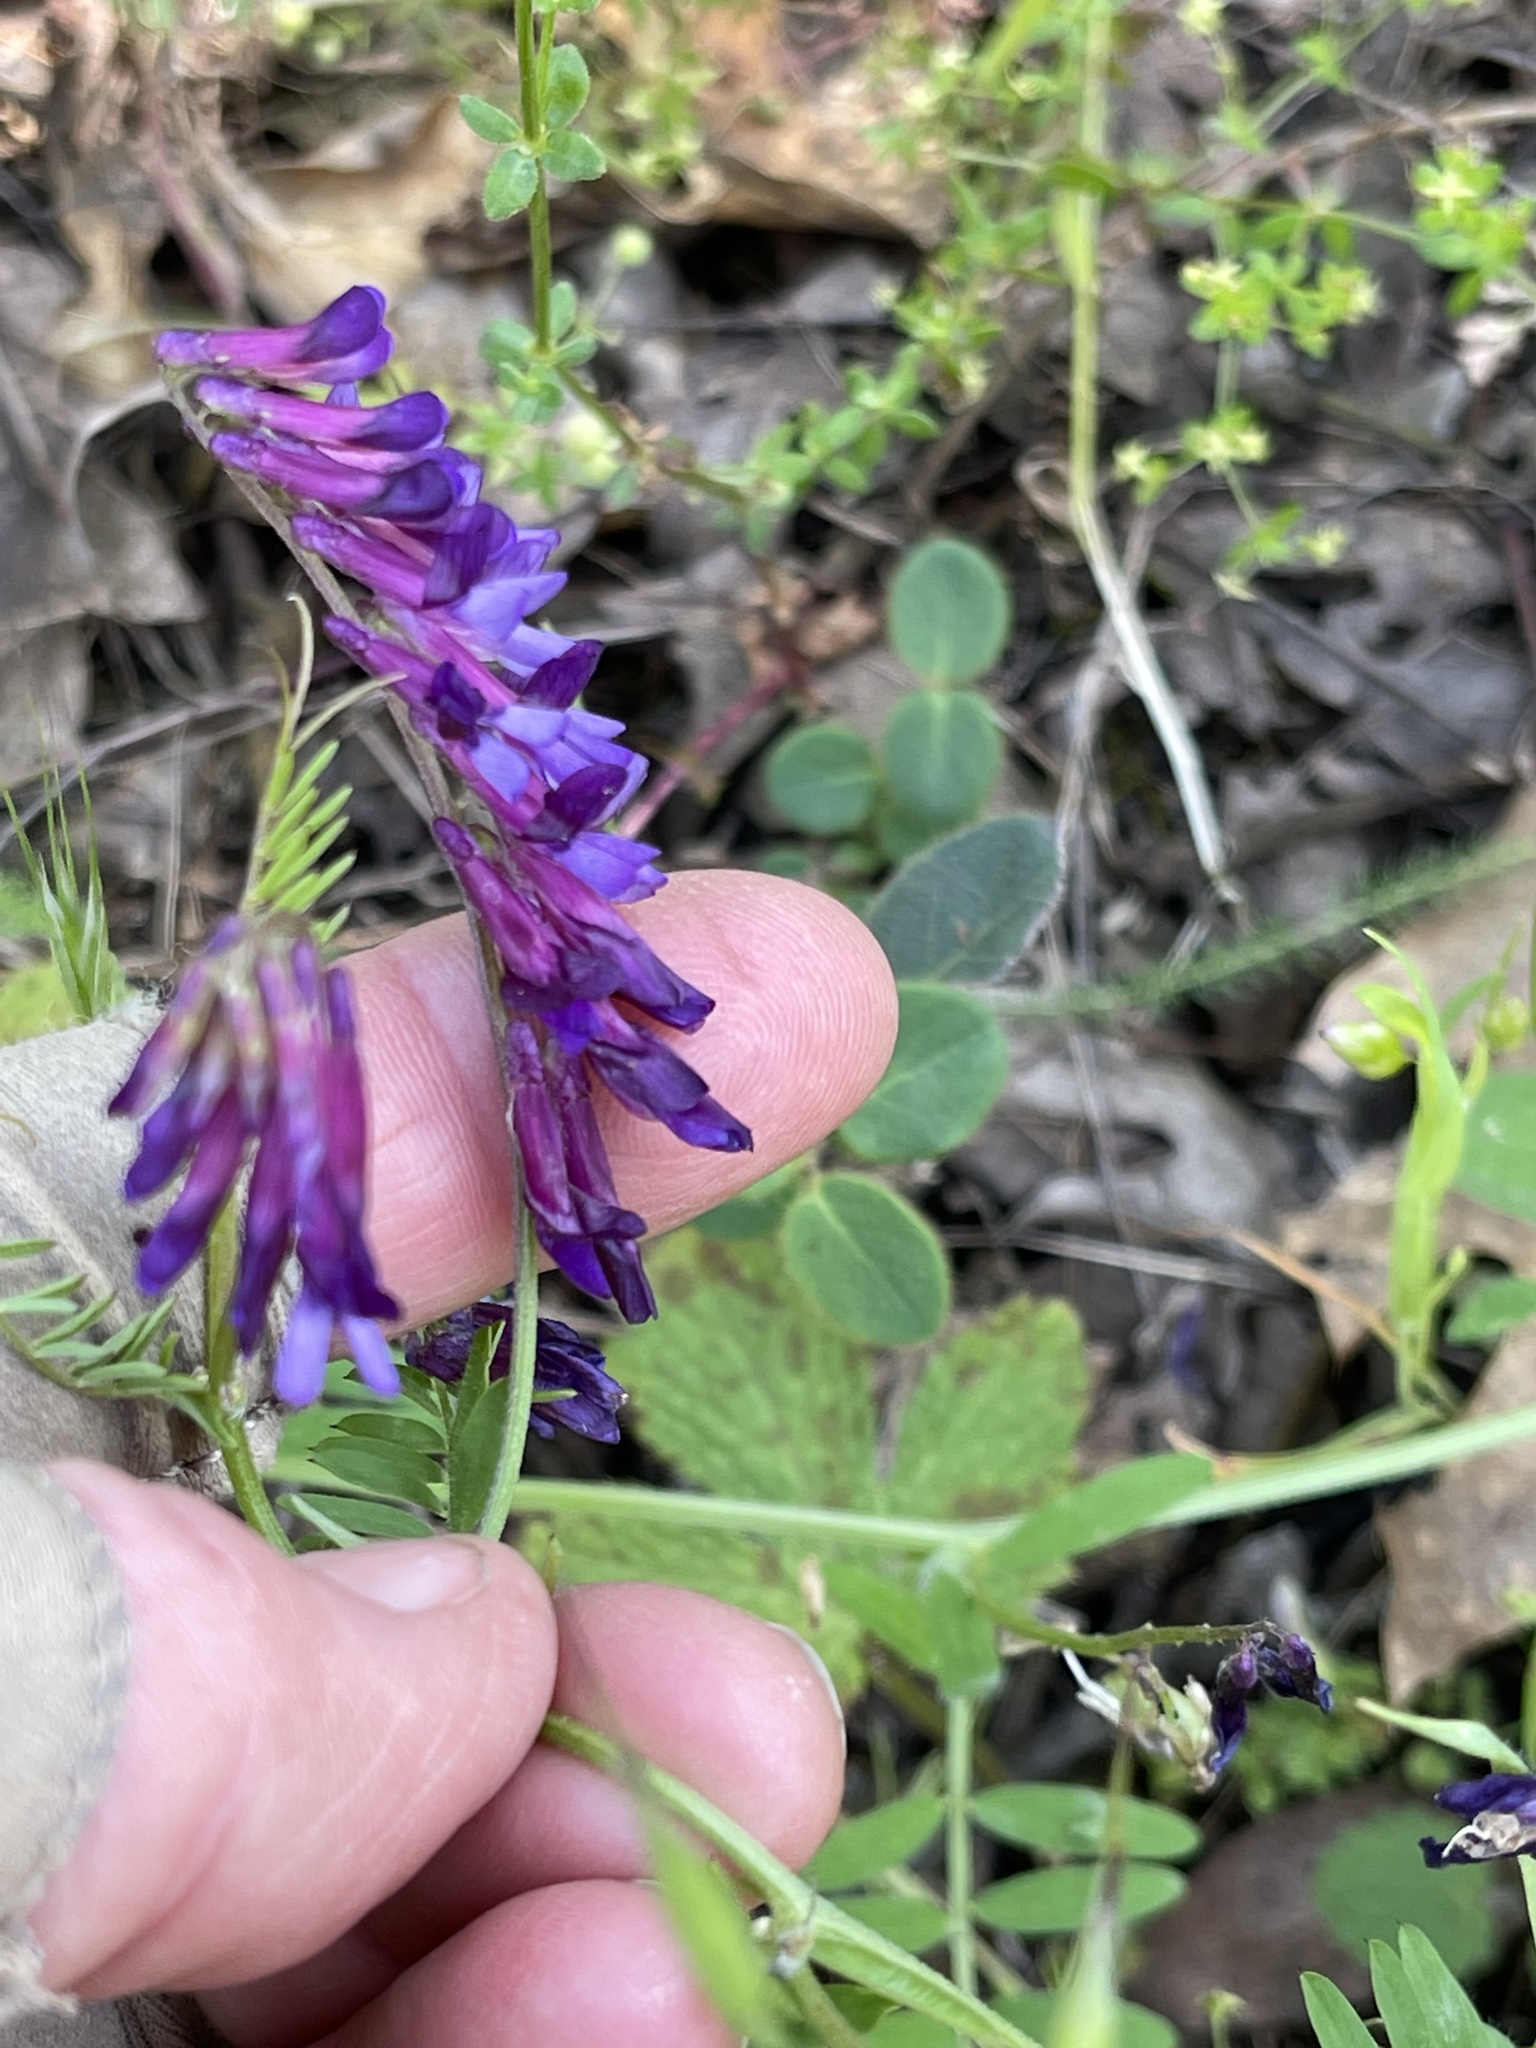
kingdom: Plantae
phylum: Tracheophyta
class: Magnoliopsida
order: Fabales
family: Fabaceae
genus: Vicia
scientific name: Vicia villosa
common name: Fodder vetch
